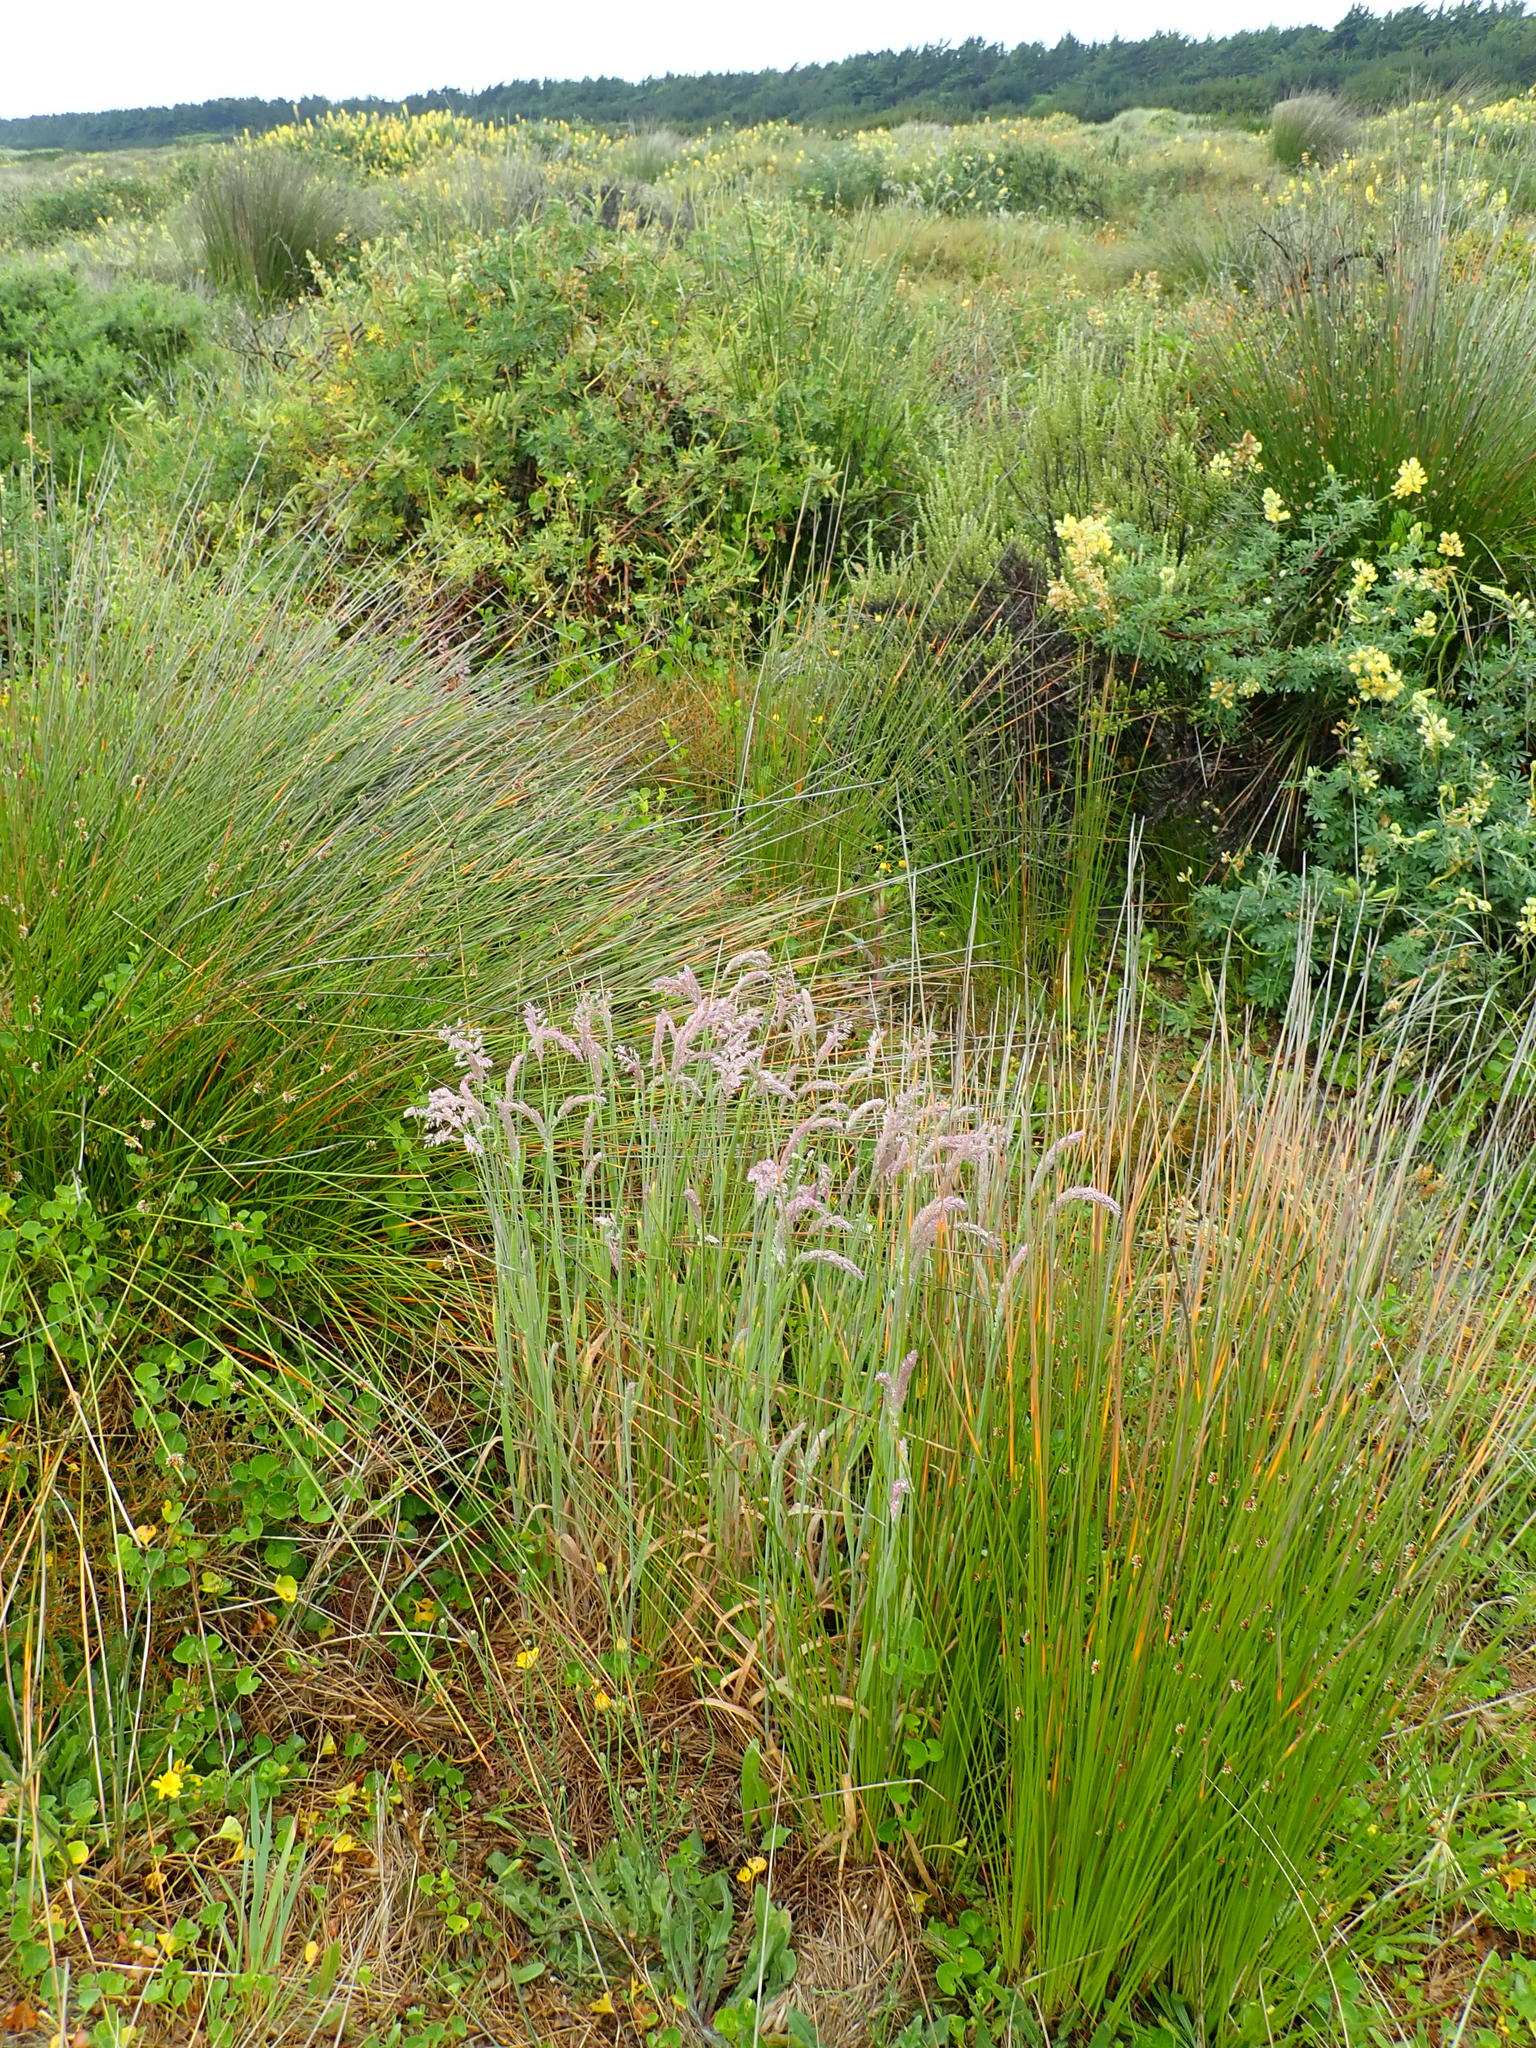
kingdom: Plantae
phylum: Tracheophyta
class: Liliopsida
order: Poales
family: Poaceae
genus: Holcus
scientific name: Holcus lanatus
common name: Yorkshire-fog
